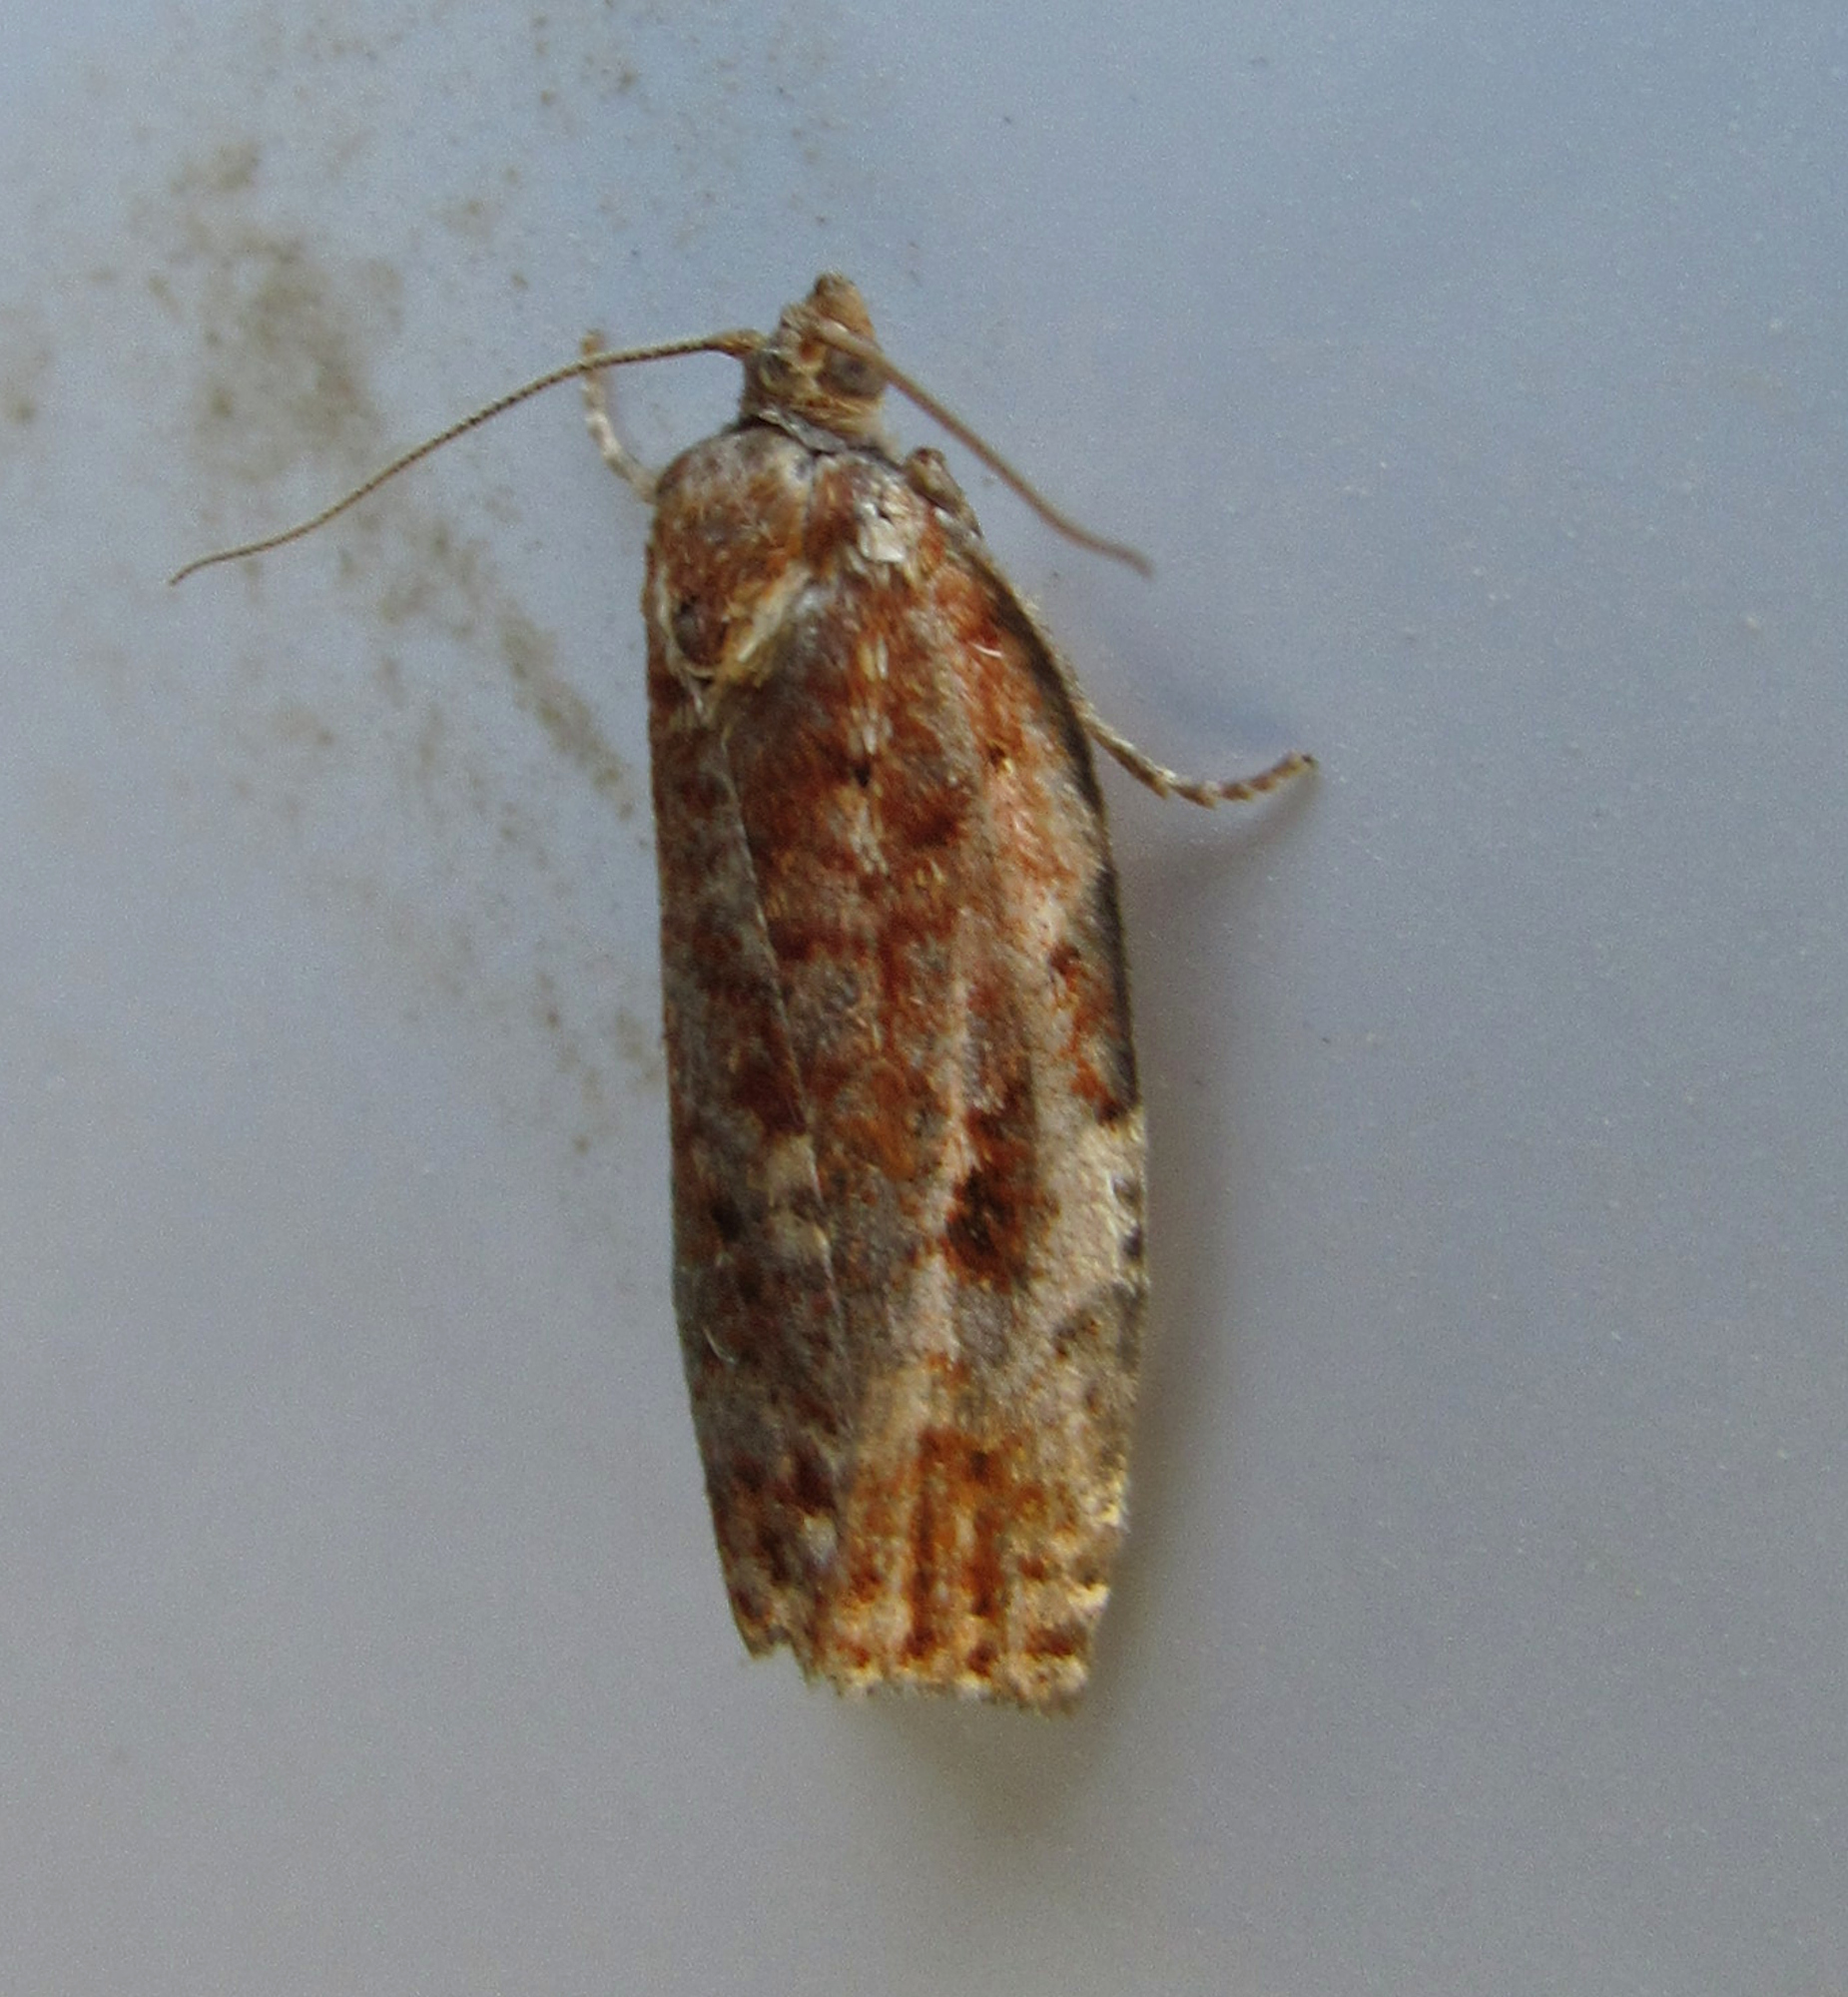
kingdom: Animalia
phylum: Arthropoda
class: Insecta
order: Lepidoptera
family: Tortricidae
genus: Choristoneura
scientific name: Choristoneura occidentalis
